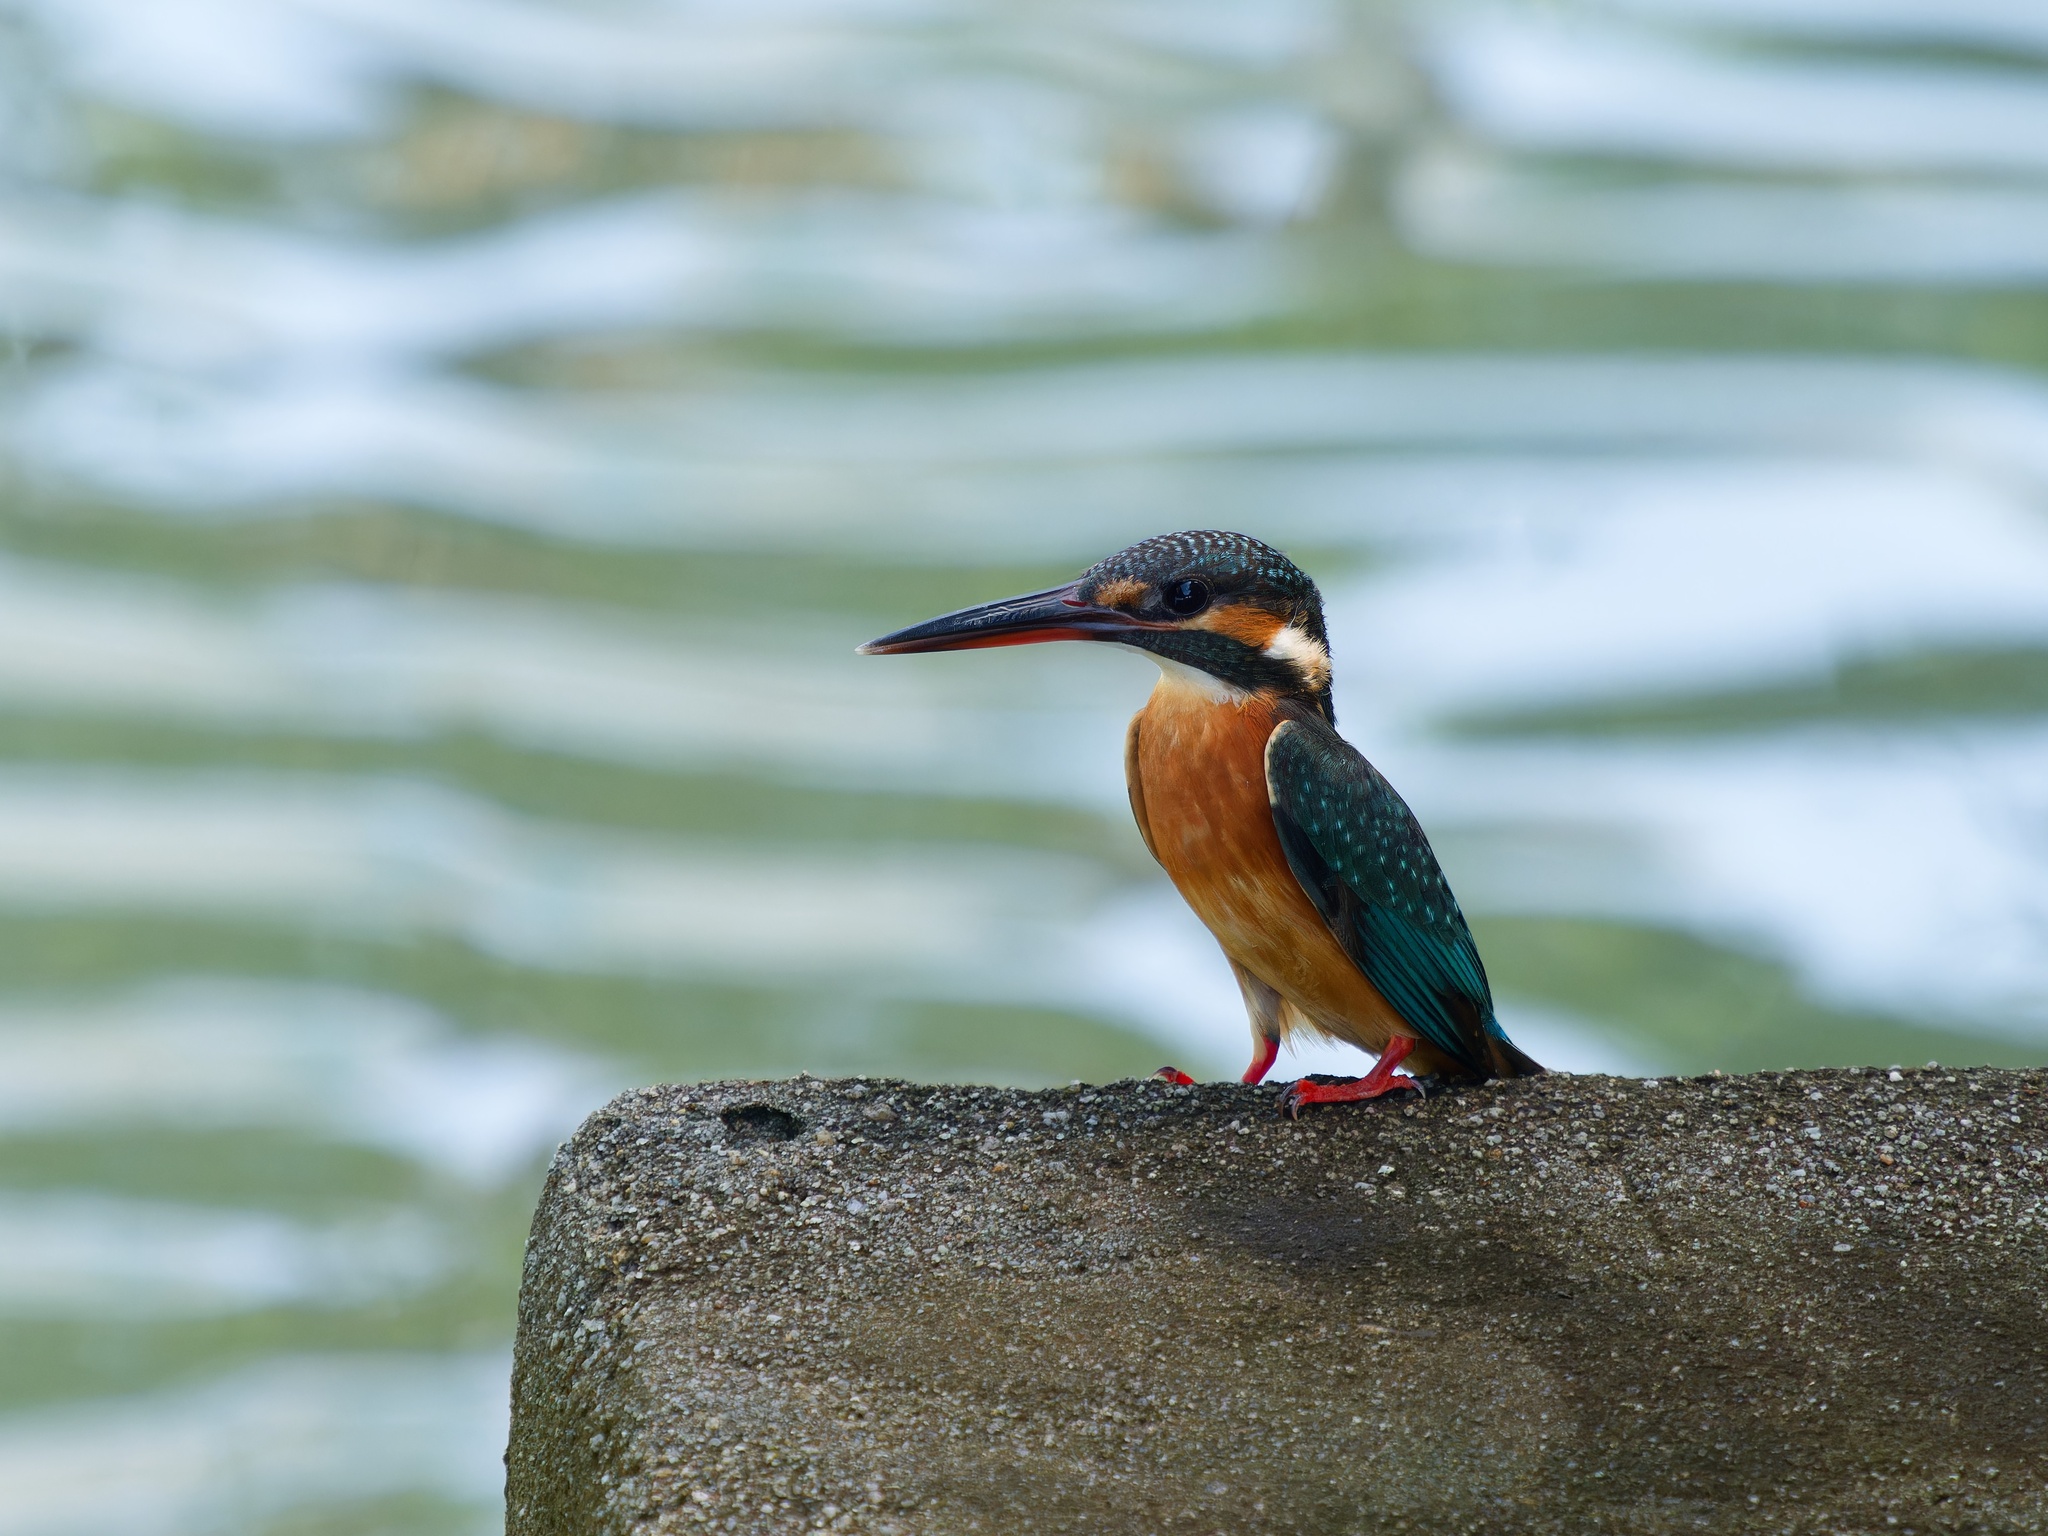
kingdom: Animalia
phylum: Chordata
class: Aves
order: Coraciiformes
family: Alcedinidae
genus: Alcedo
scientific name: Alcedo atthis
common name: Common kingfisher
